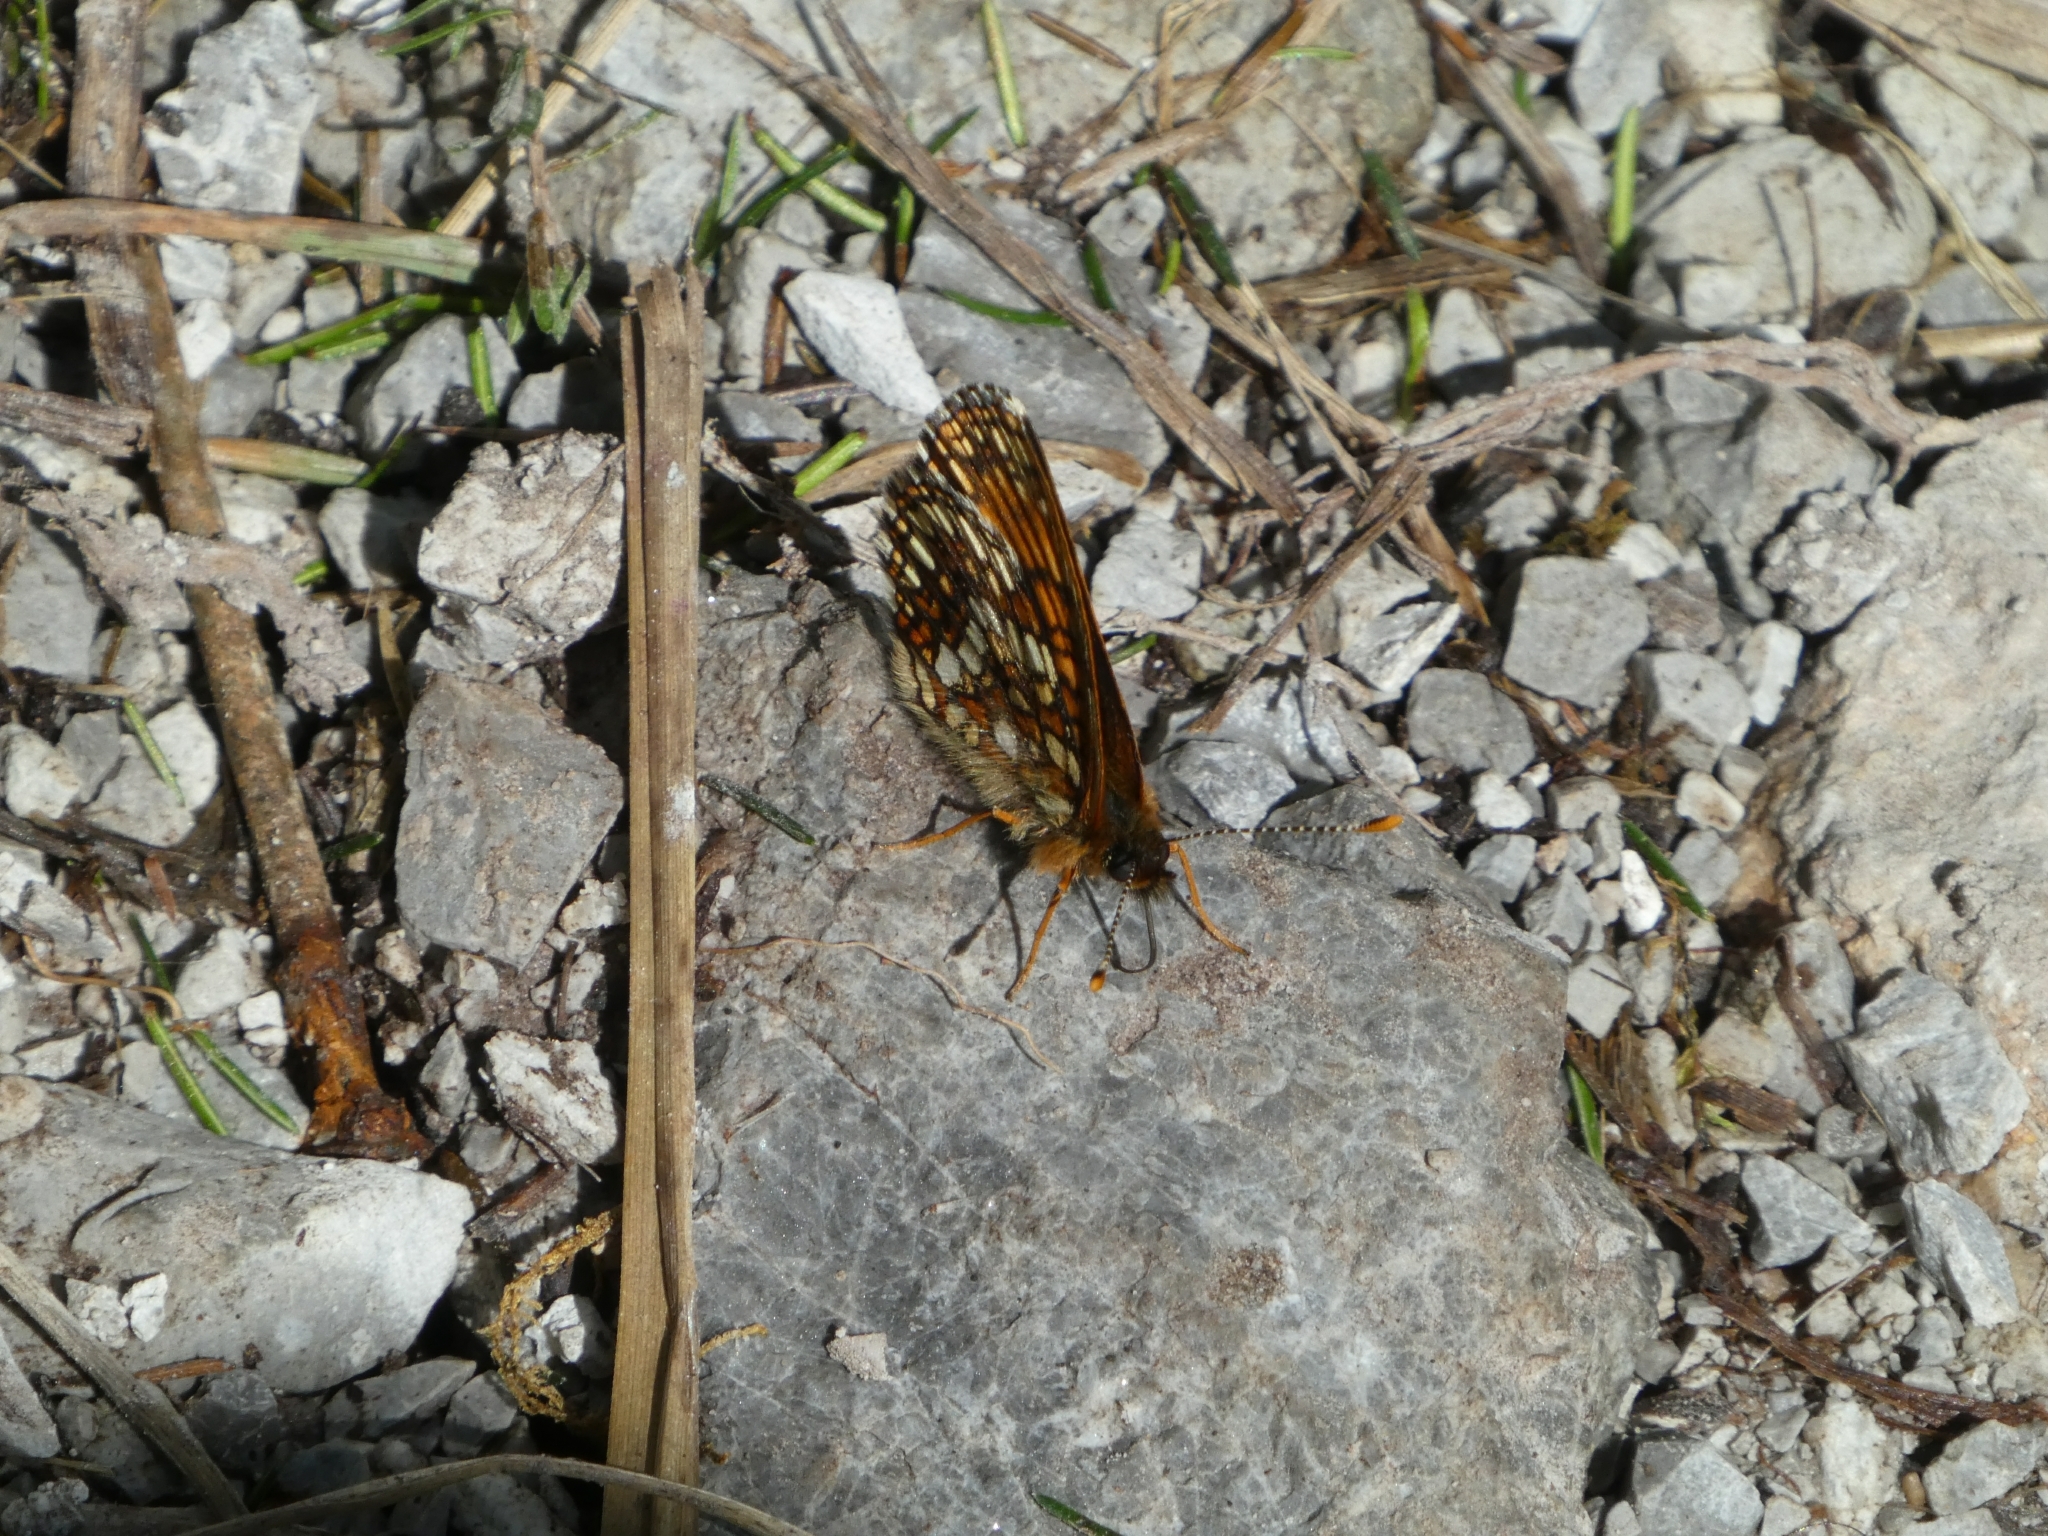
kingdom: Animalia
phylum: Arthropoda
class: Insecta
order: Lepidoptera
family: Nymphalidae
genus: Melitaea
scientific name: Melitaea diamina
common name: False heath fritillary
